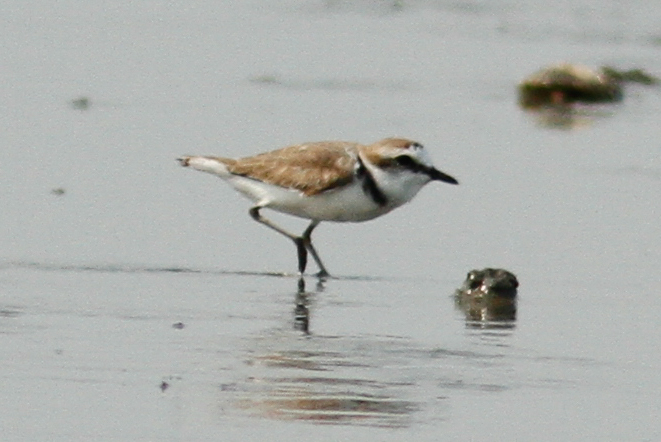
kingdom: Animalia
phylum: Chordata
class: Aves
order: Charadriiformes
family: Charadriidae
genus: Charadrius
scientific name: Charadrius alexandrinus
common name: Kentish plover
